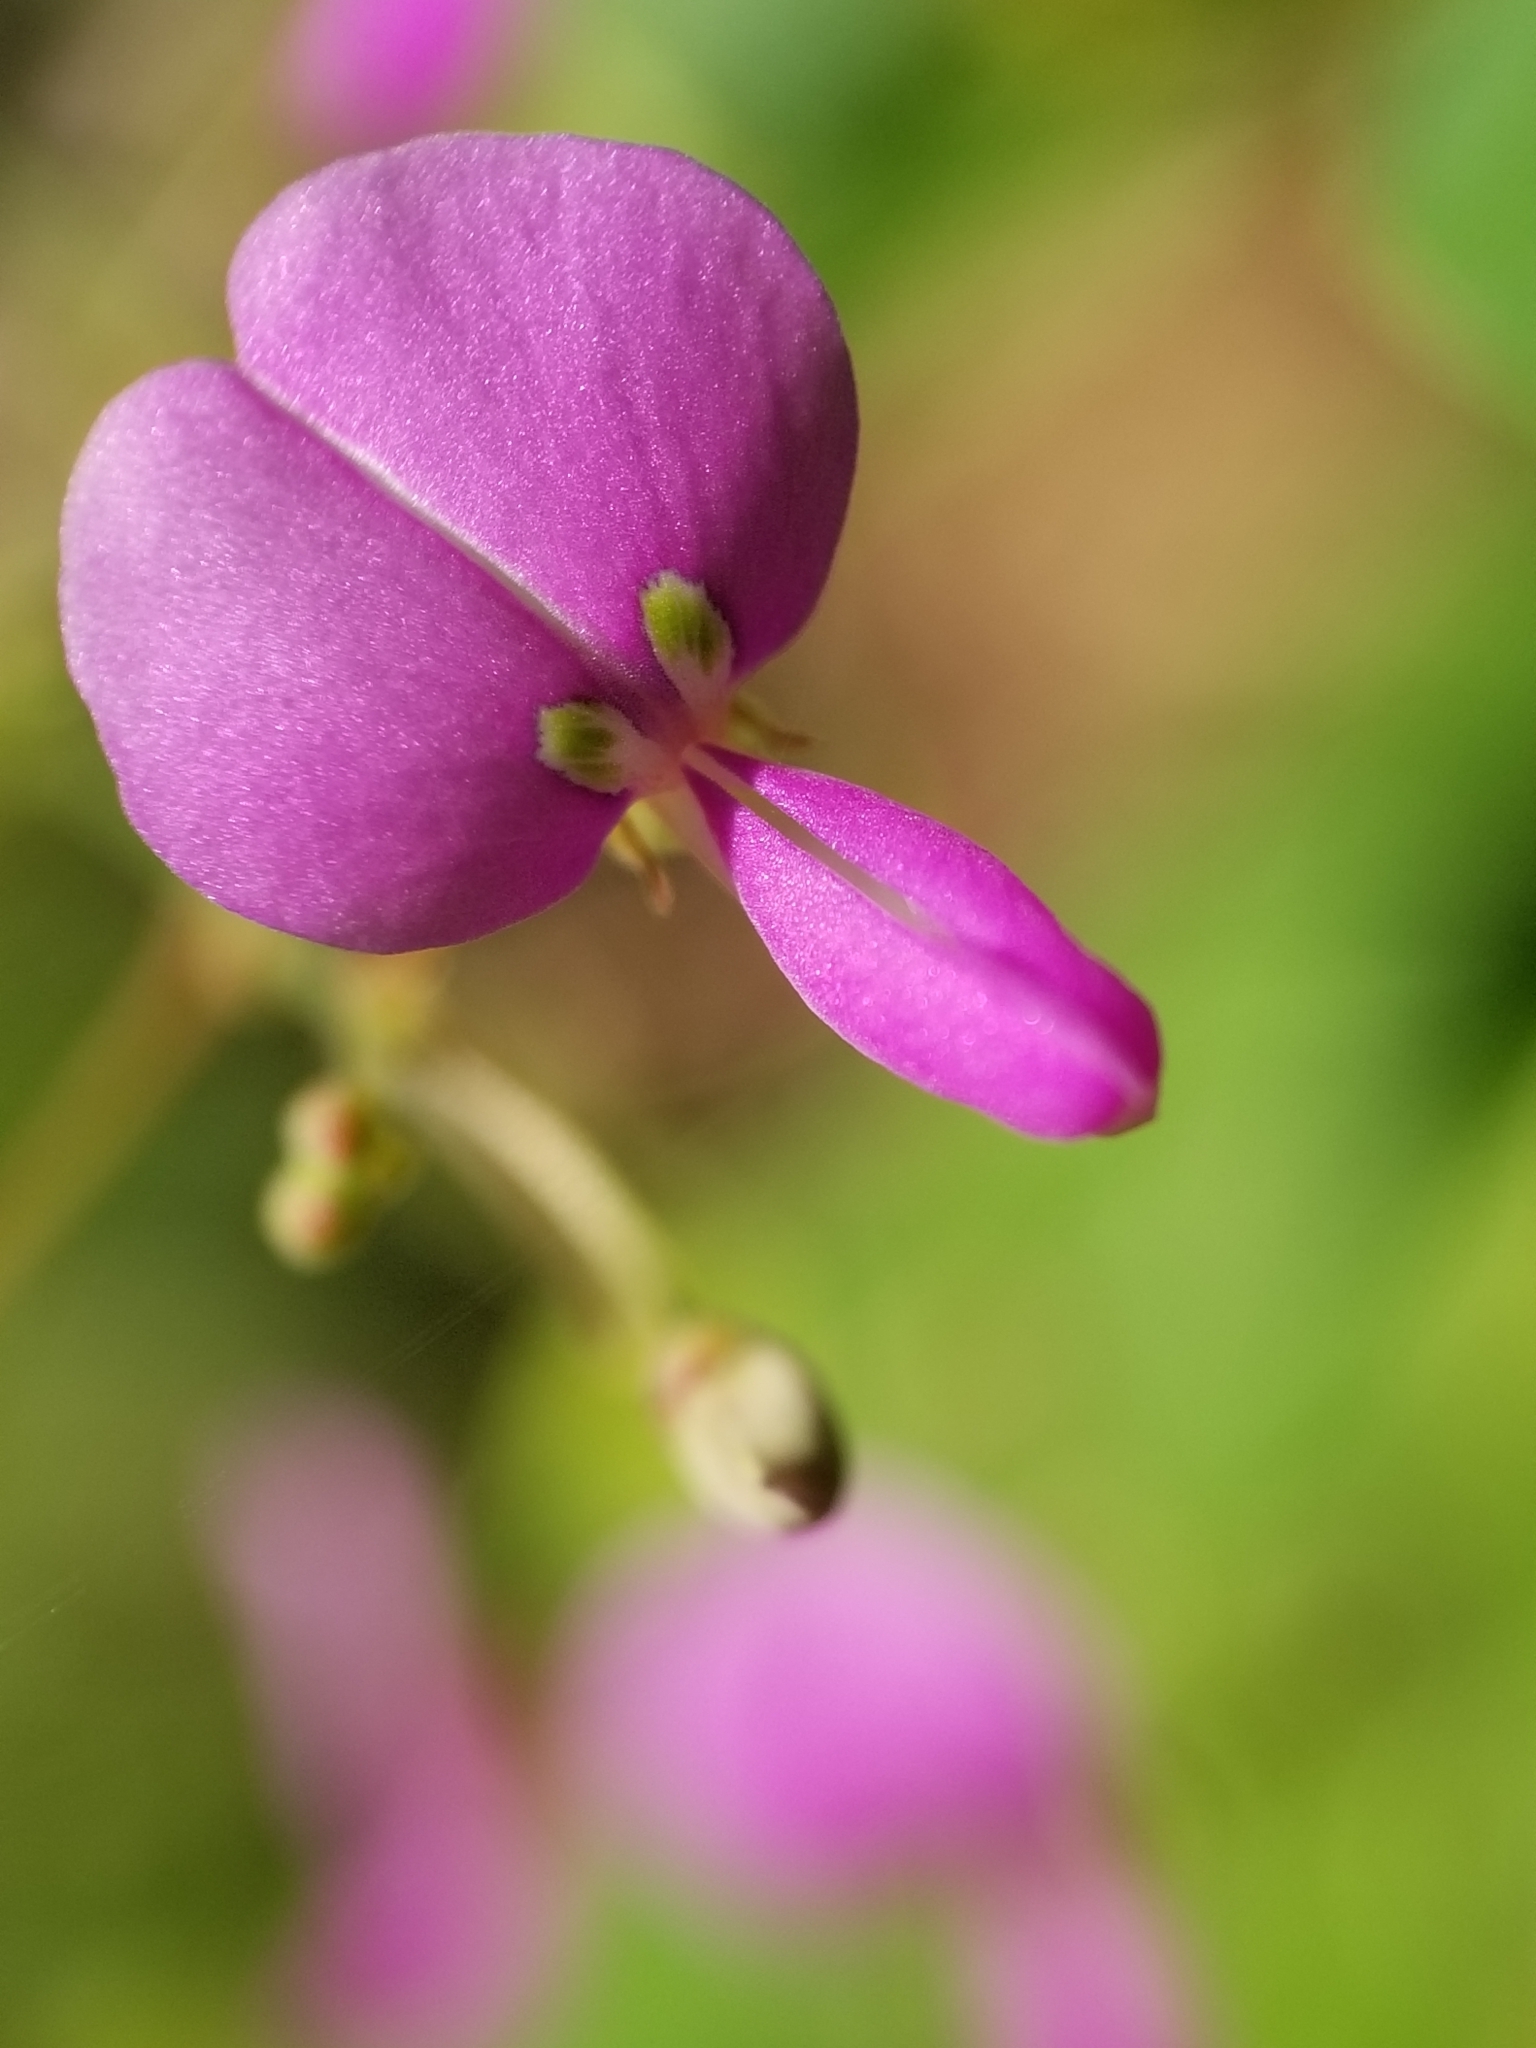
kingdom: Plantae
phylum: Tracheophyta
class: Magnoliopsida
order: Fabales
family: Fabaceae
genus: Desmodium
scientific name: Desmodium paniculatum
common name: Panicled tick-clover
